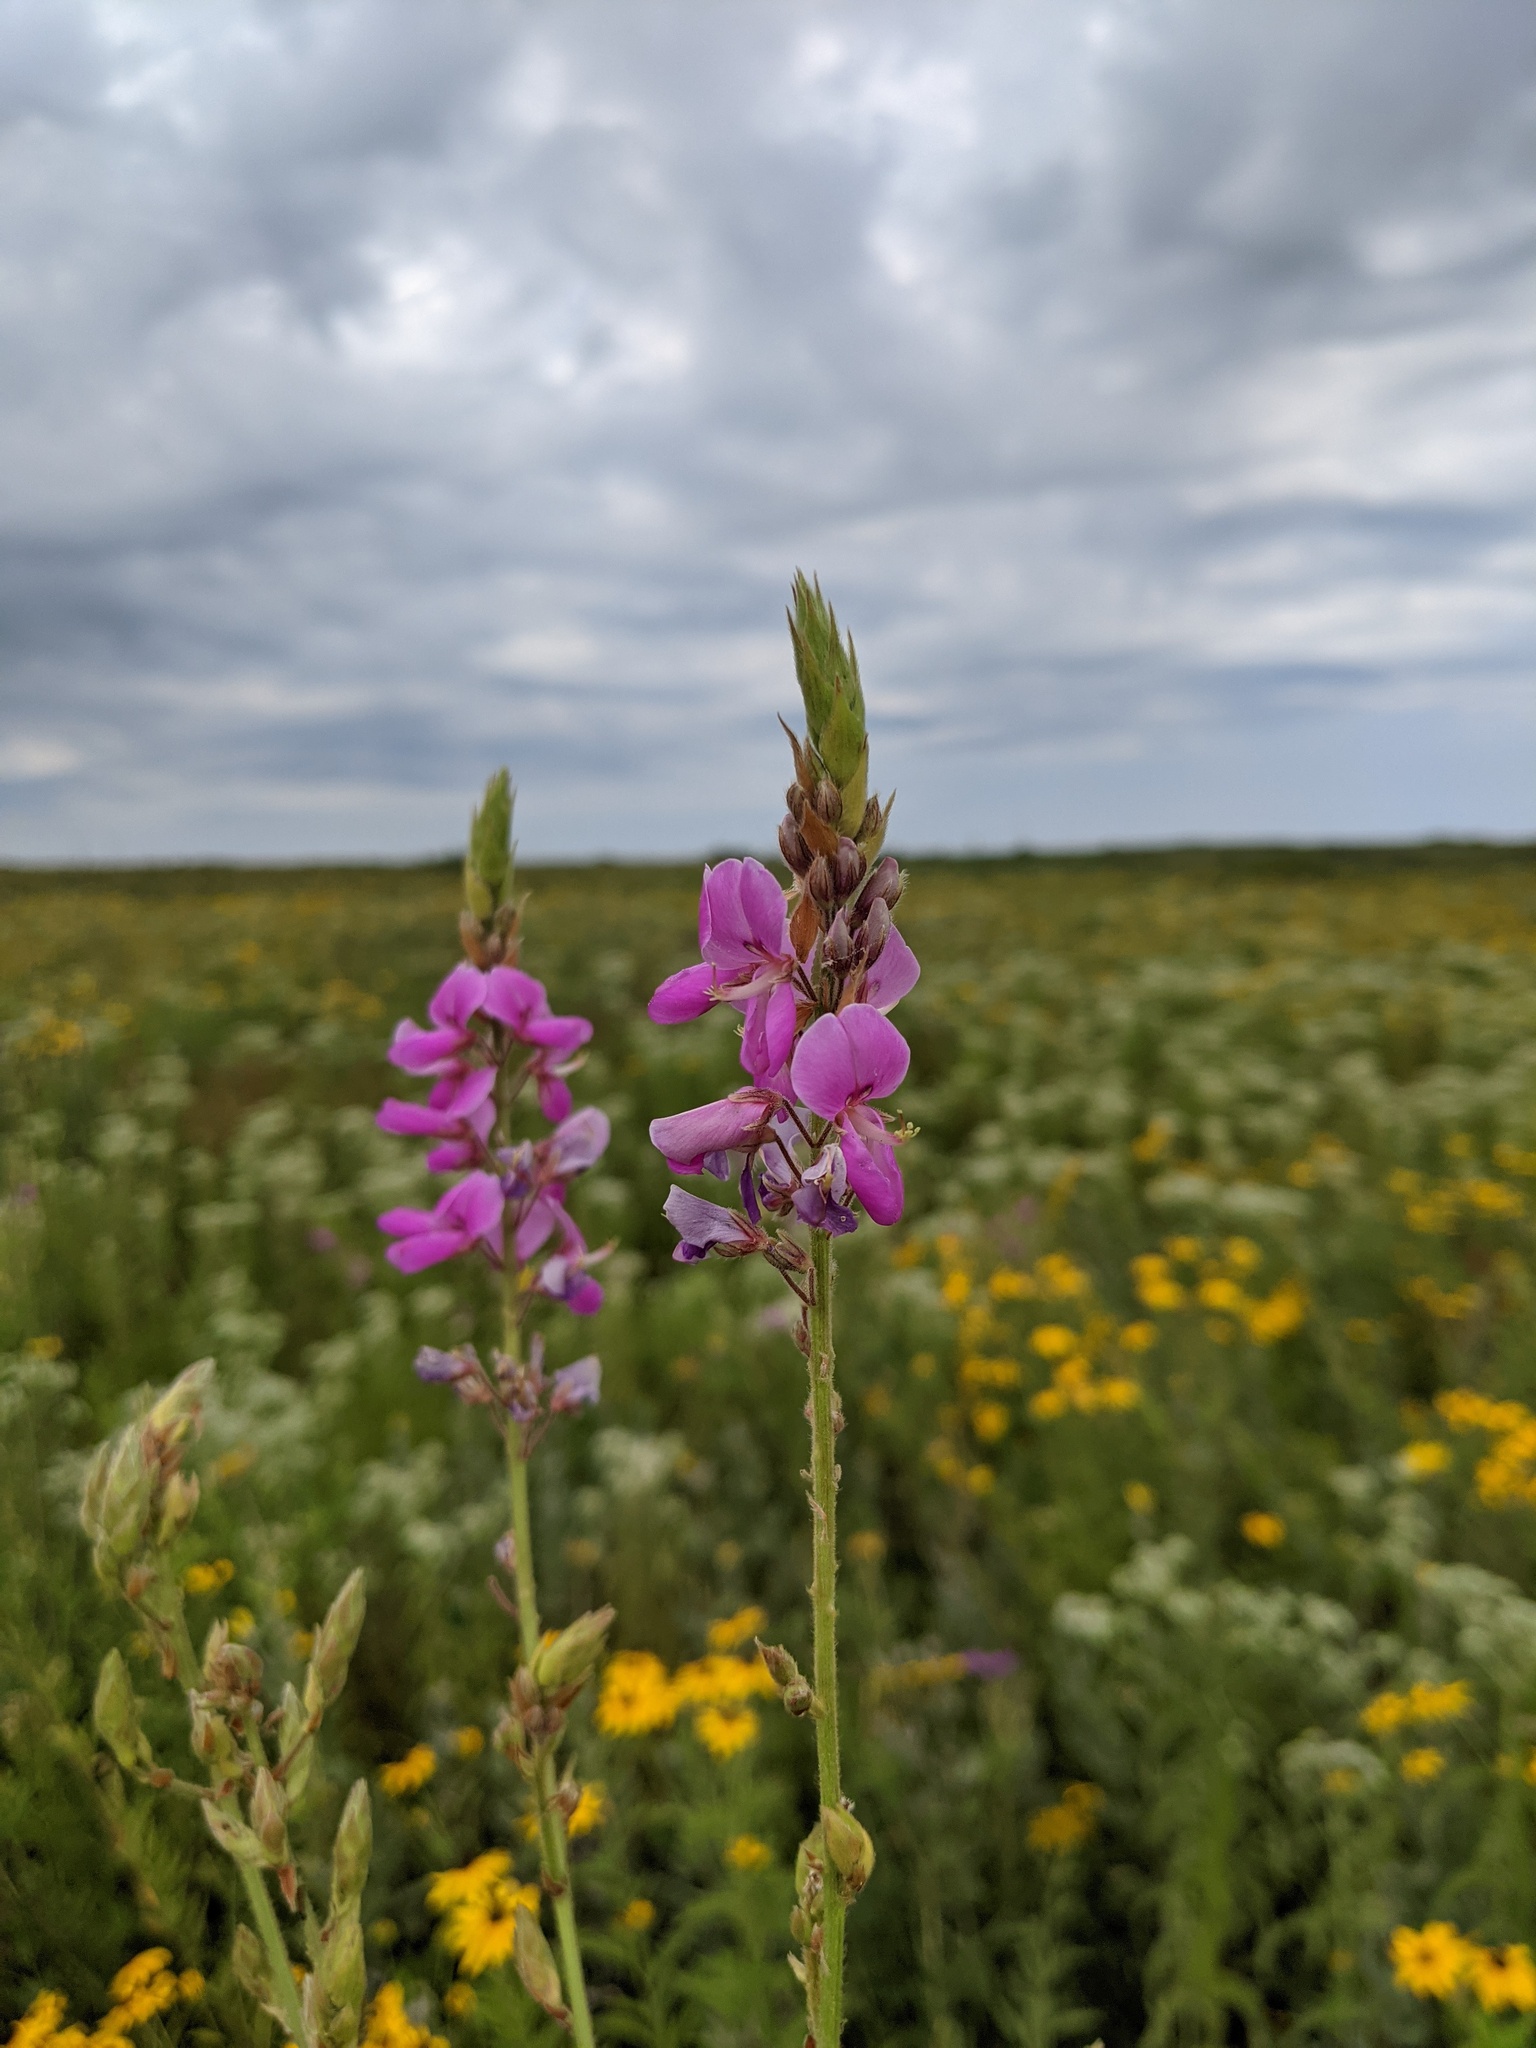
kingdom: Plantae
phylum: Tracheophyta
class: Magnoliopsida
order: Fabales
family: Fabaceae
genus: Desmodium
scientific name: Desmodium canadense
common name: Canada tick-trefoil
